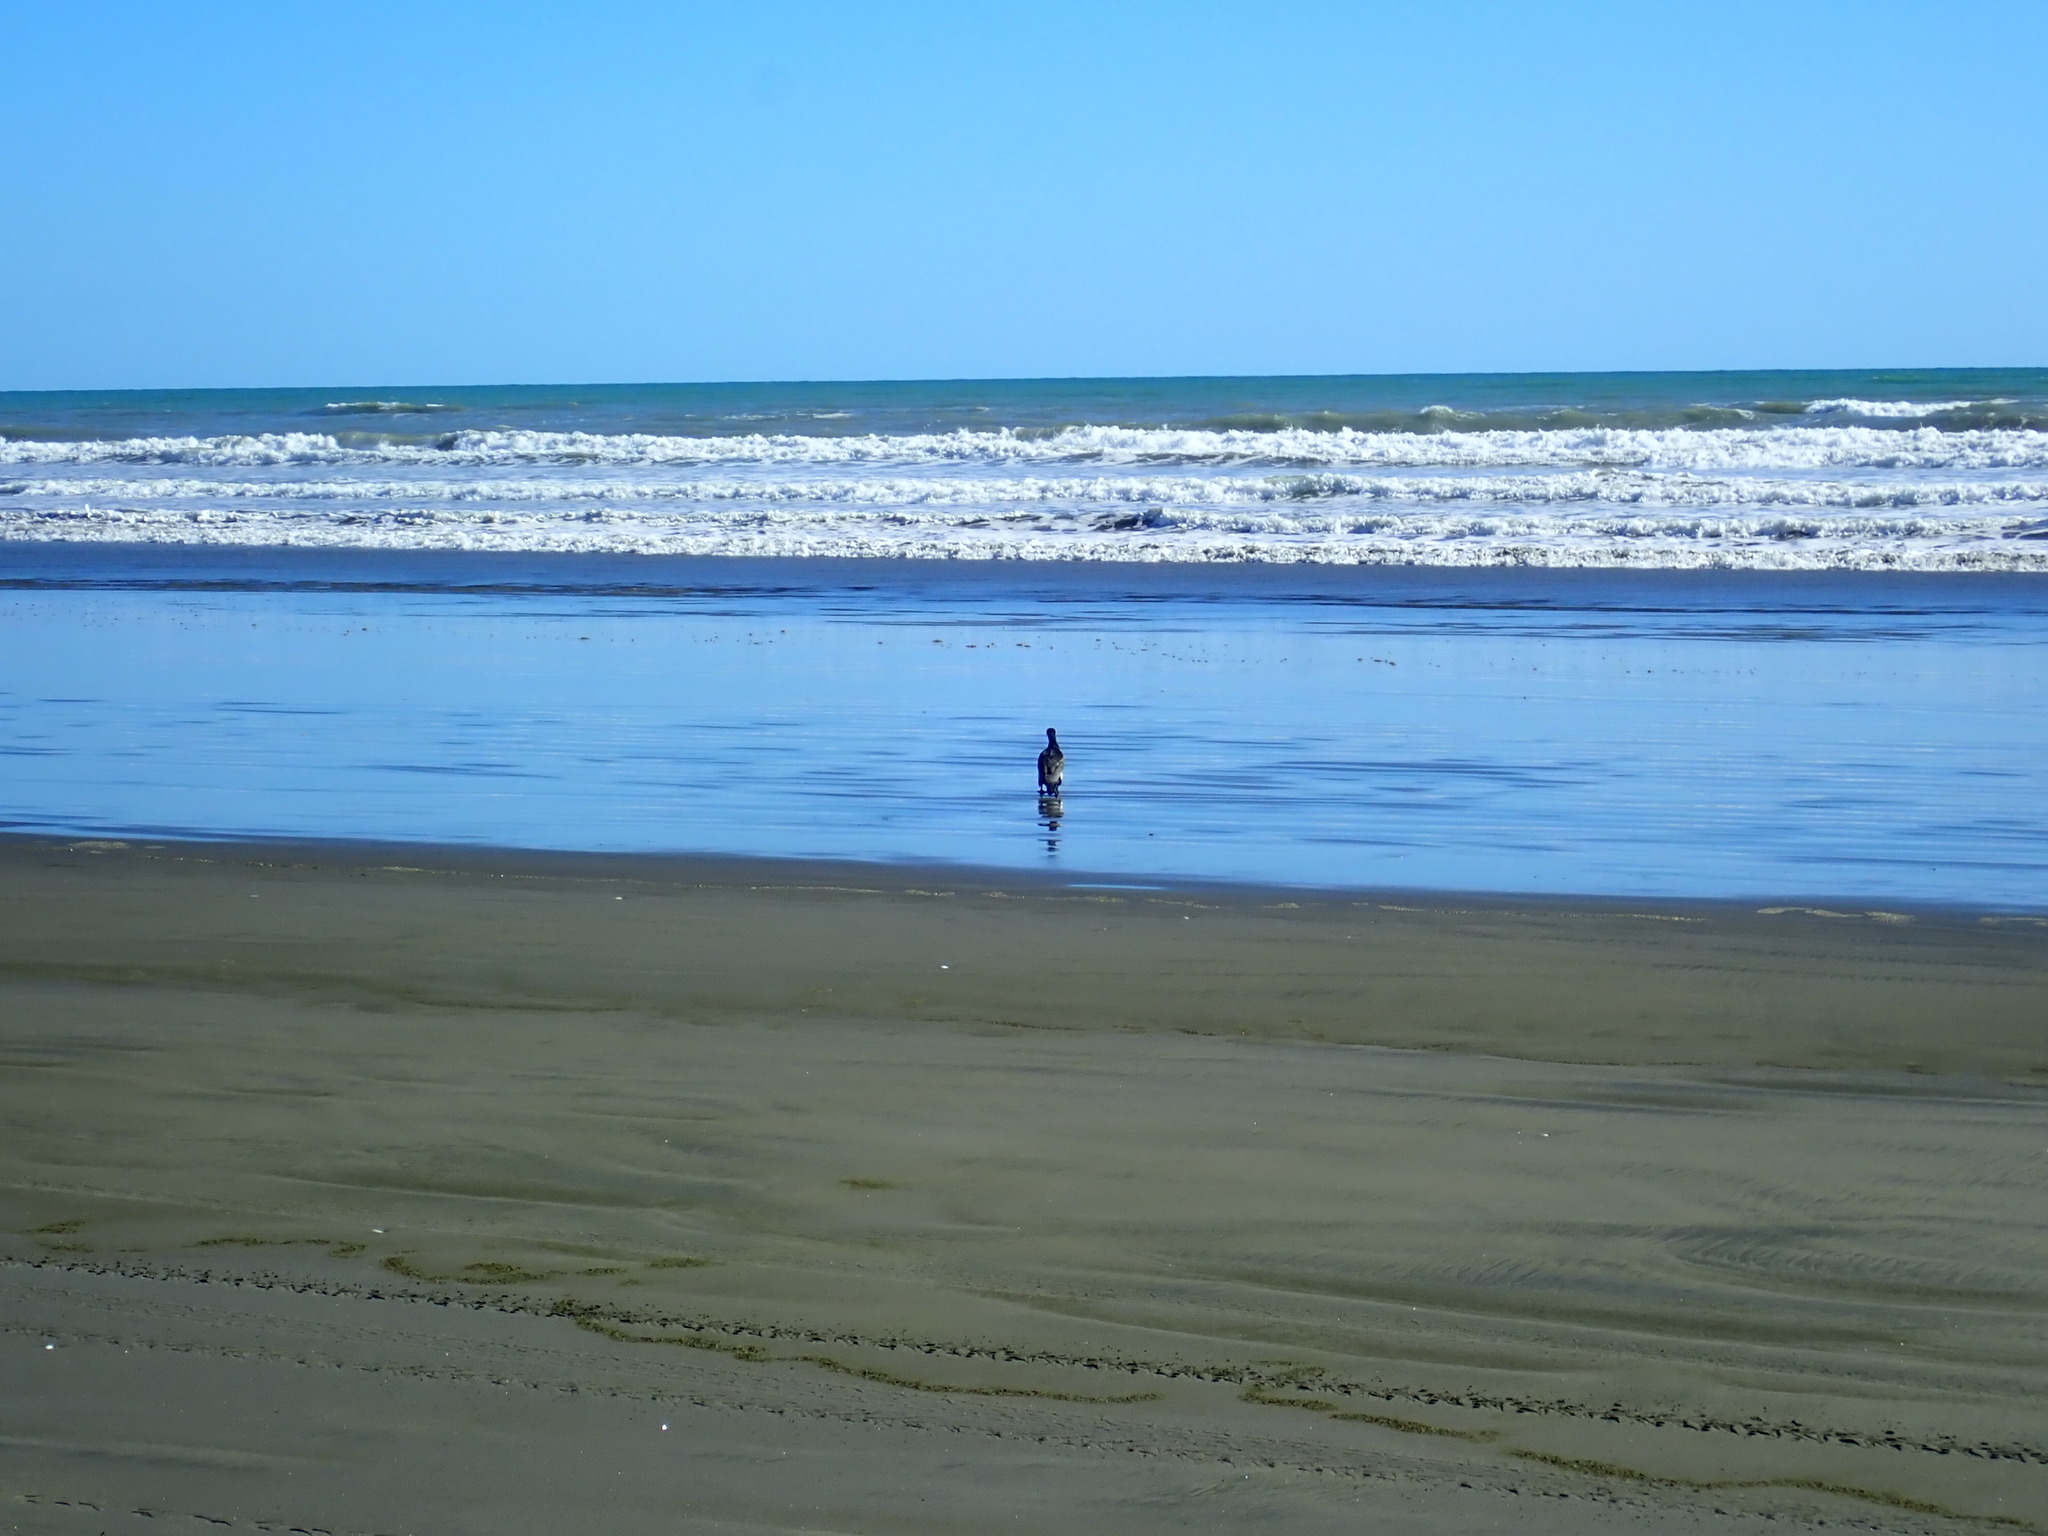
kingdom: Animalia
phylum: Chordata
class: Aves
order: Suliformes
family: Phalacrocoracidae
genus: Phalacrocorax
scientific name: Phalacrocorax carbo
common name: Great cormorant
